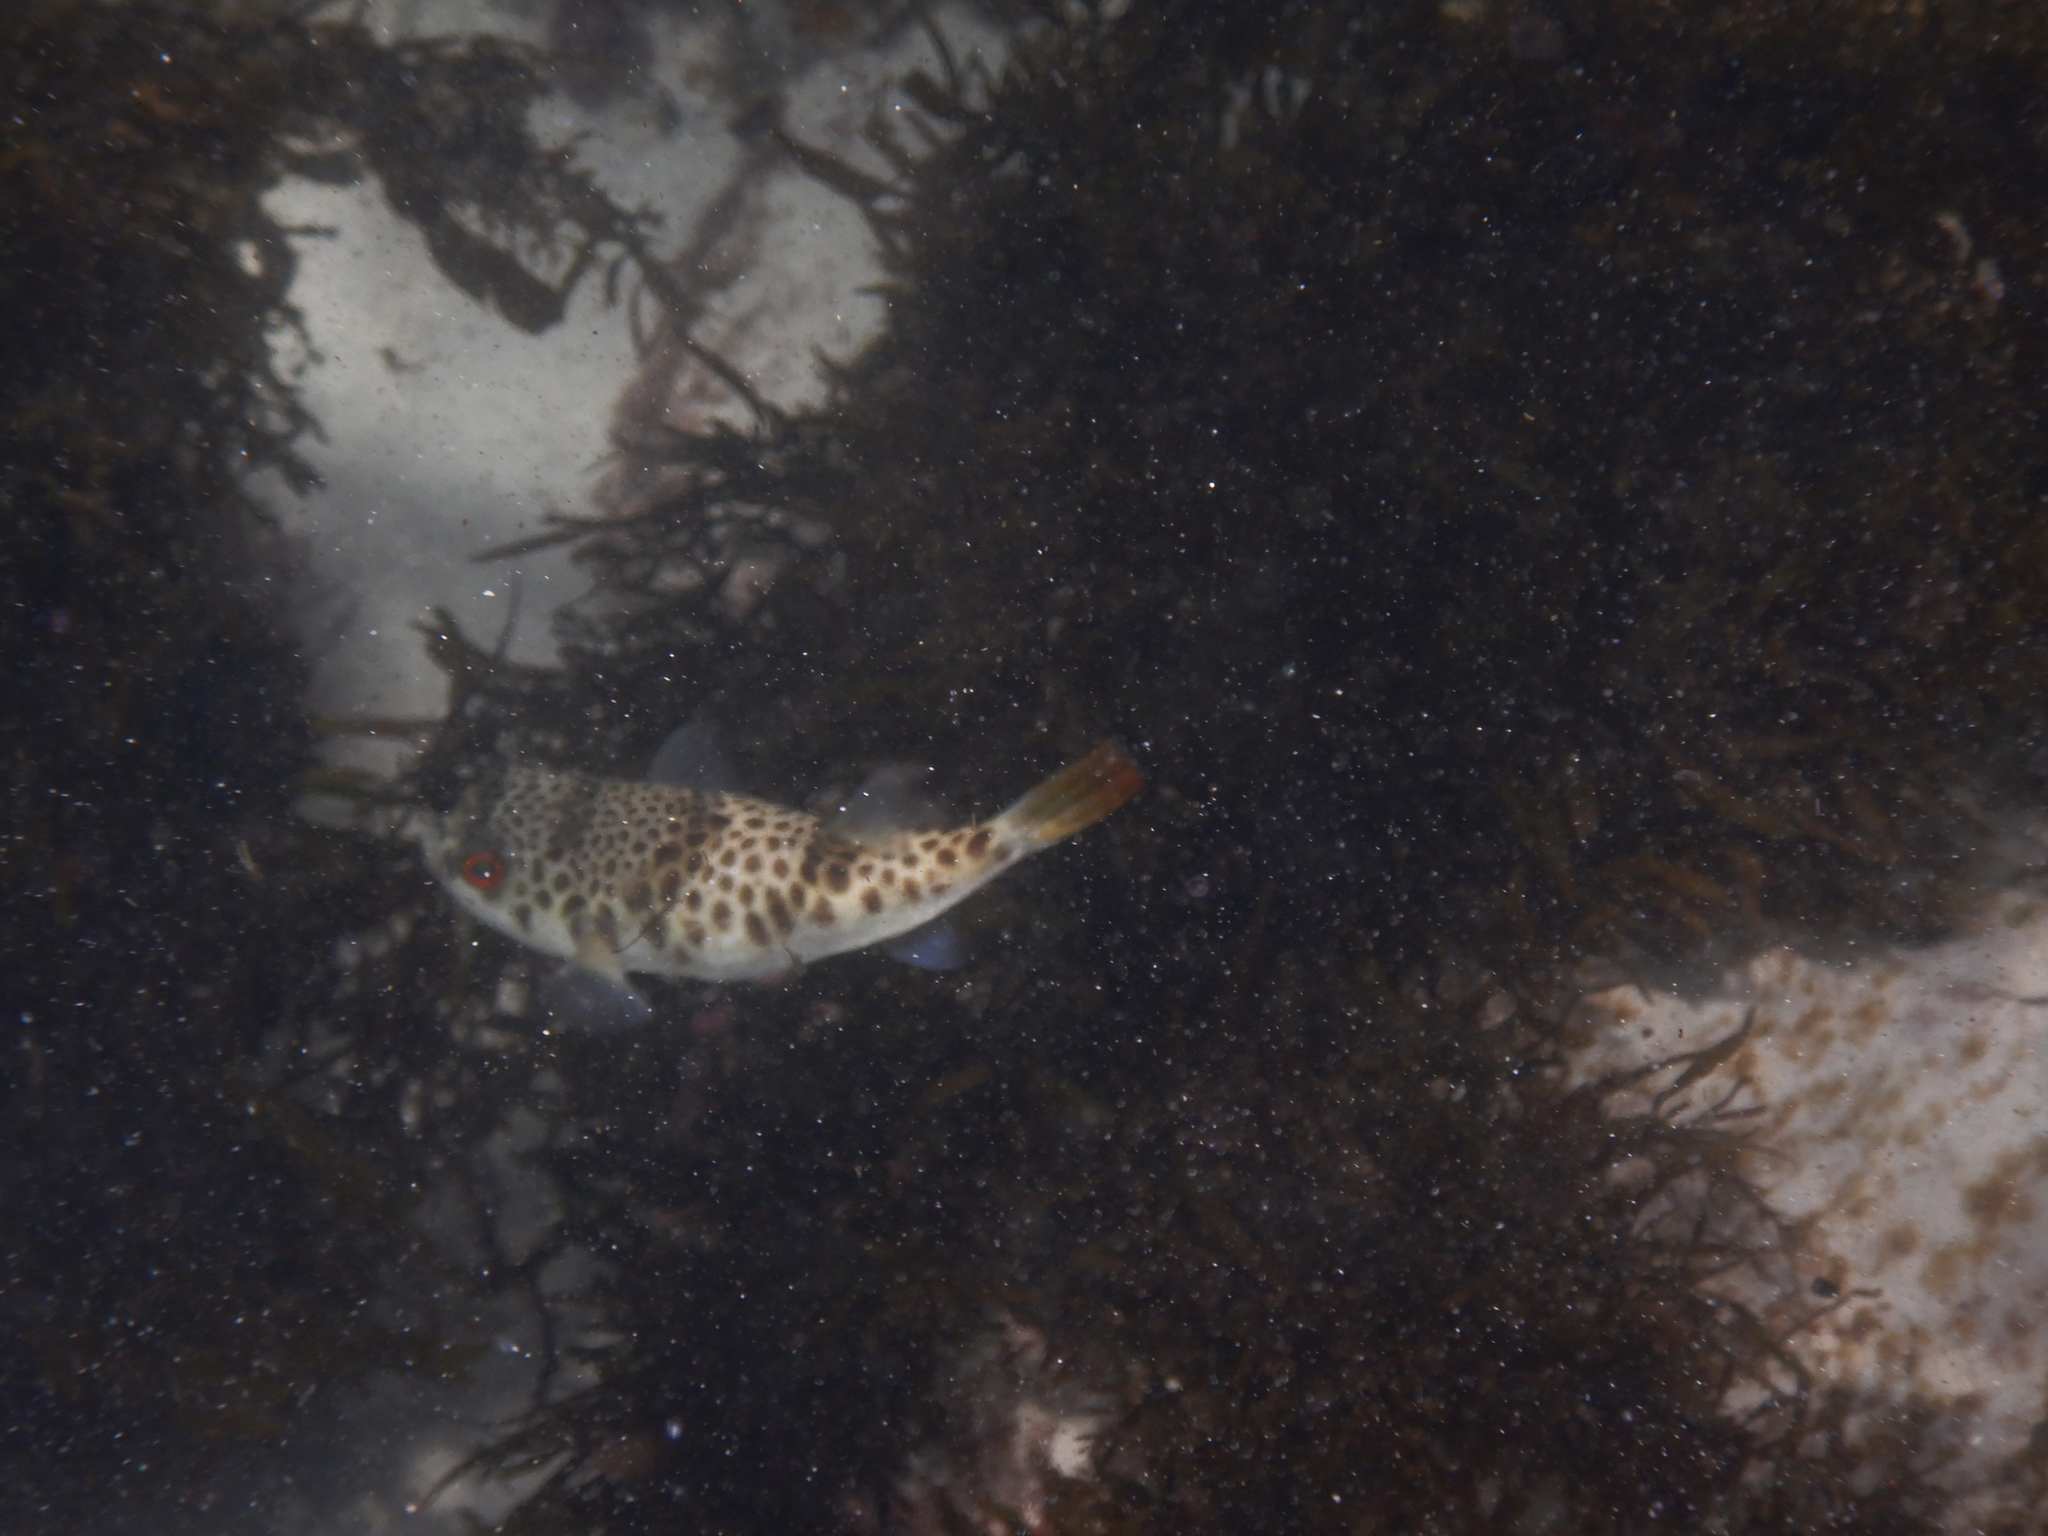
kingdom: Animalia
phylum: Chordata
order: Tetraodontiformes
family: Tetraodontidae
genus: Tetractenos
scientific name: Tetractenos glaber
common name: Smooth toadfish
